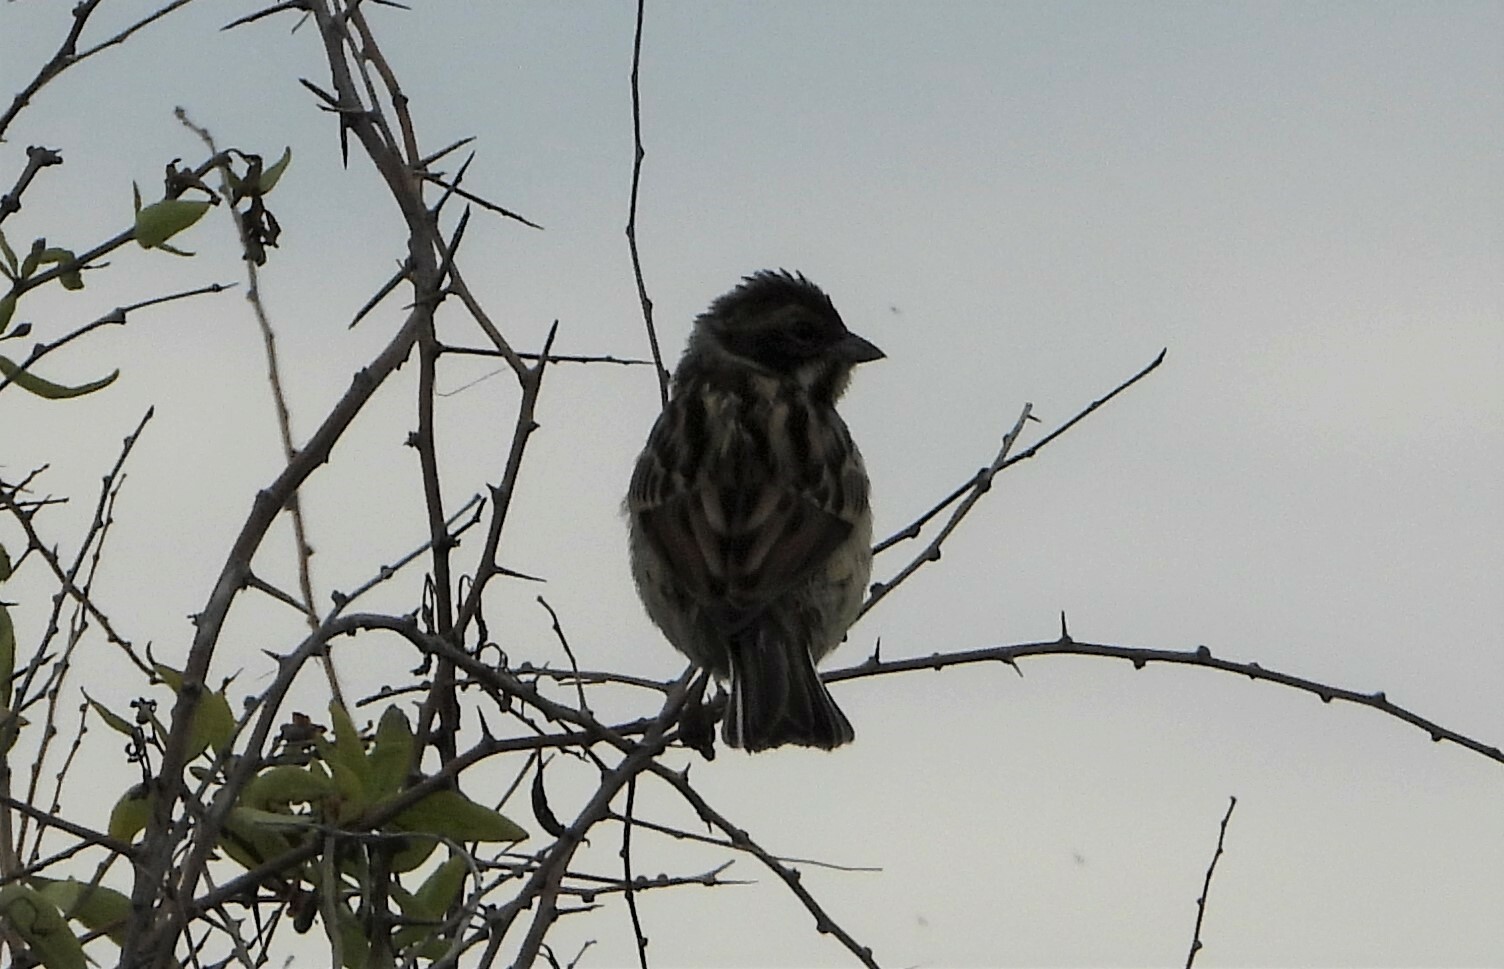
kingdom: Animalia
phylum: Chordata
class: Aves
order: Passeriformes
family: Emberizidae
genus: Emberiza
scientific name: Emberiza schoeniclus
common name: Reed bunting
